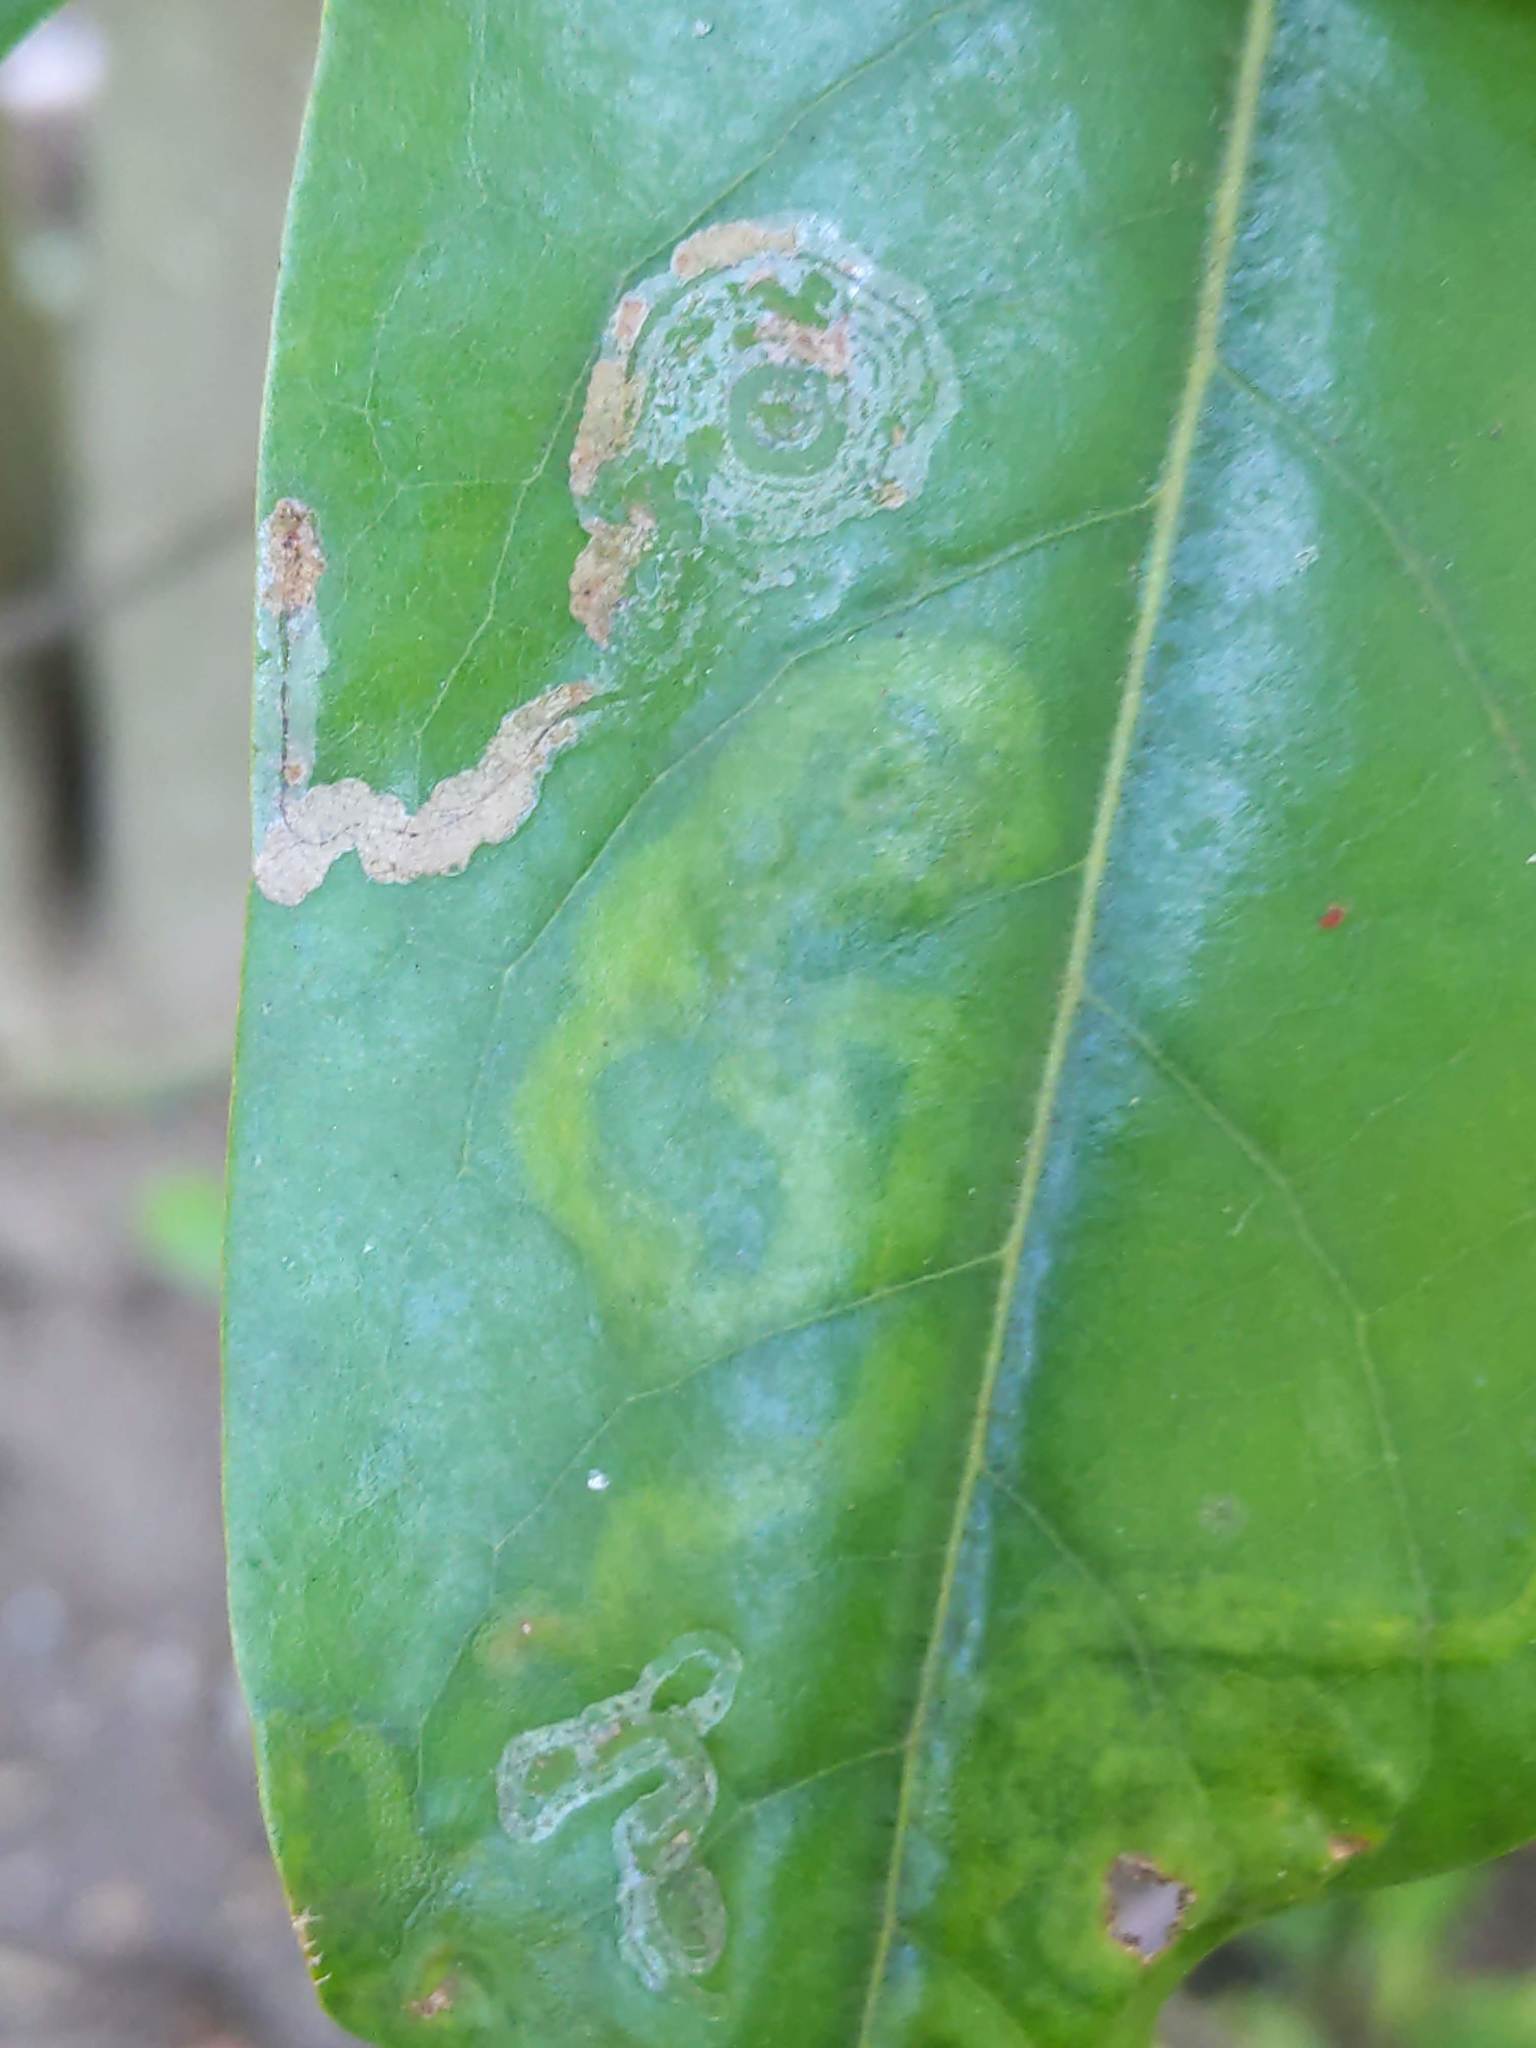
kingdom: Animalia
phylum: Arthropoda
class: Insecta
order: Lepidoptera
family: Gracillariidae
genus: Phyllocnistis
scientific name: Phyllocnistis liriodendronella
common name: Tulip tree leaf miner
